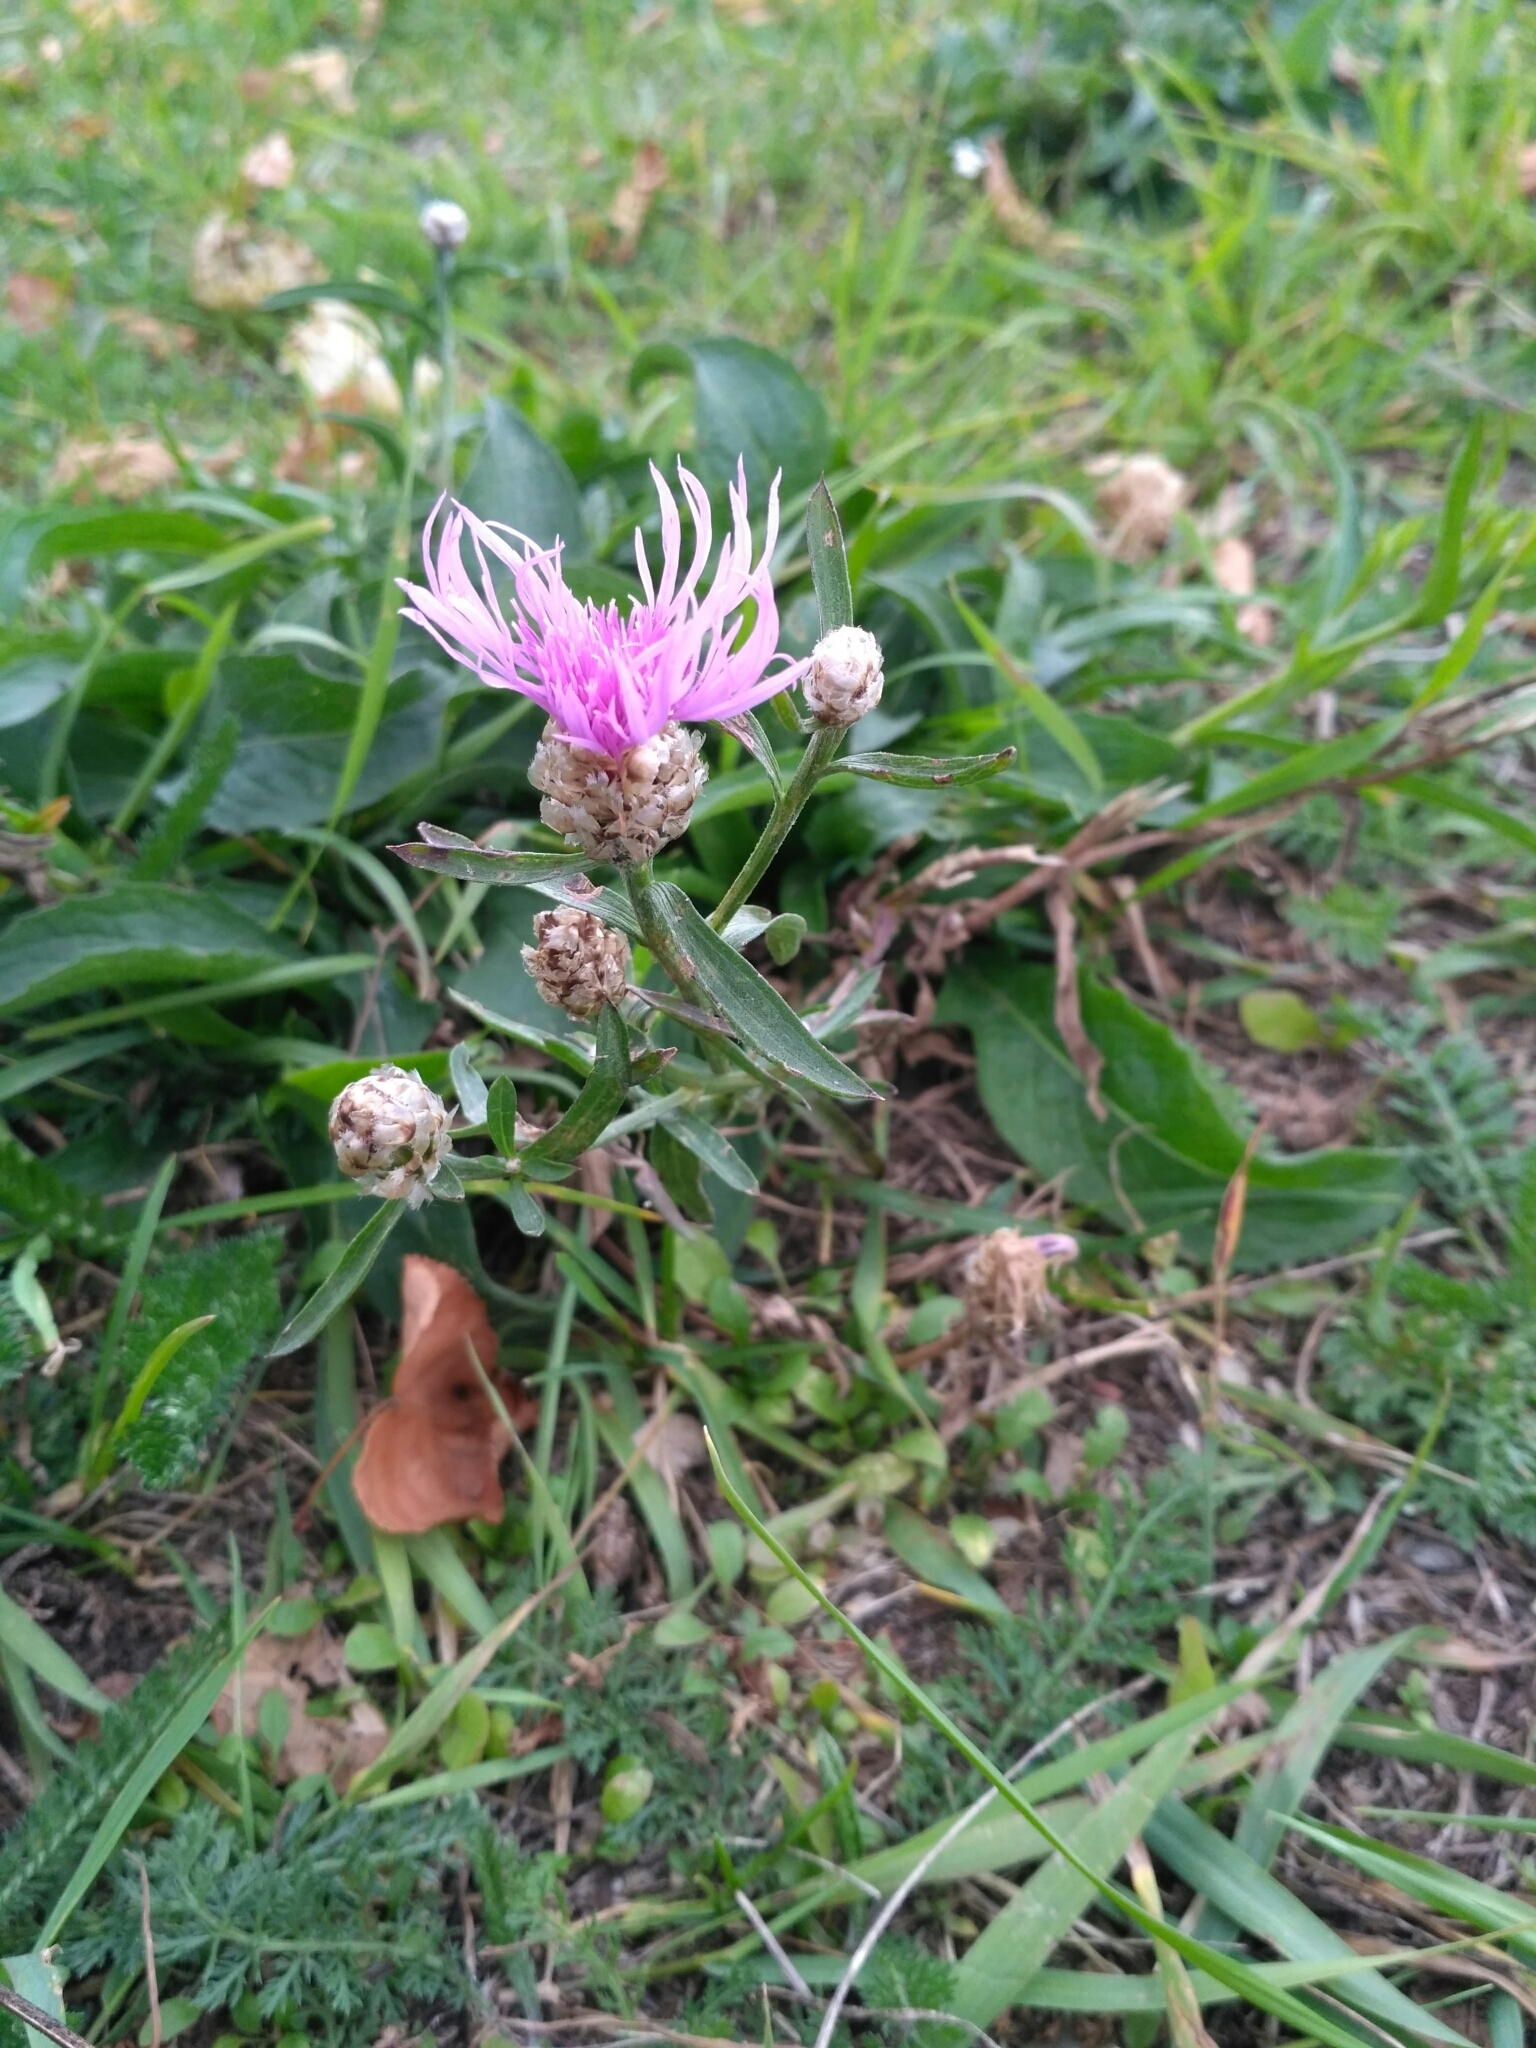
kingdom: Plantae
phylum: Tracheophyta
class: Magnoliopsida
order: Asterales
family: Asteraceae
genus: Centaurea
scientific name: Centaurea jacea
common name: Brown knapweed
